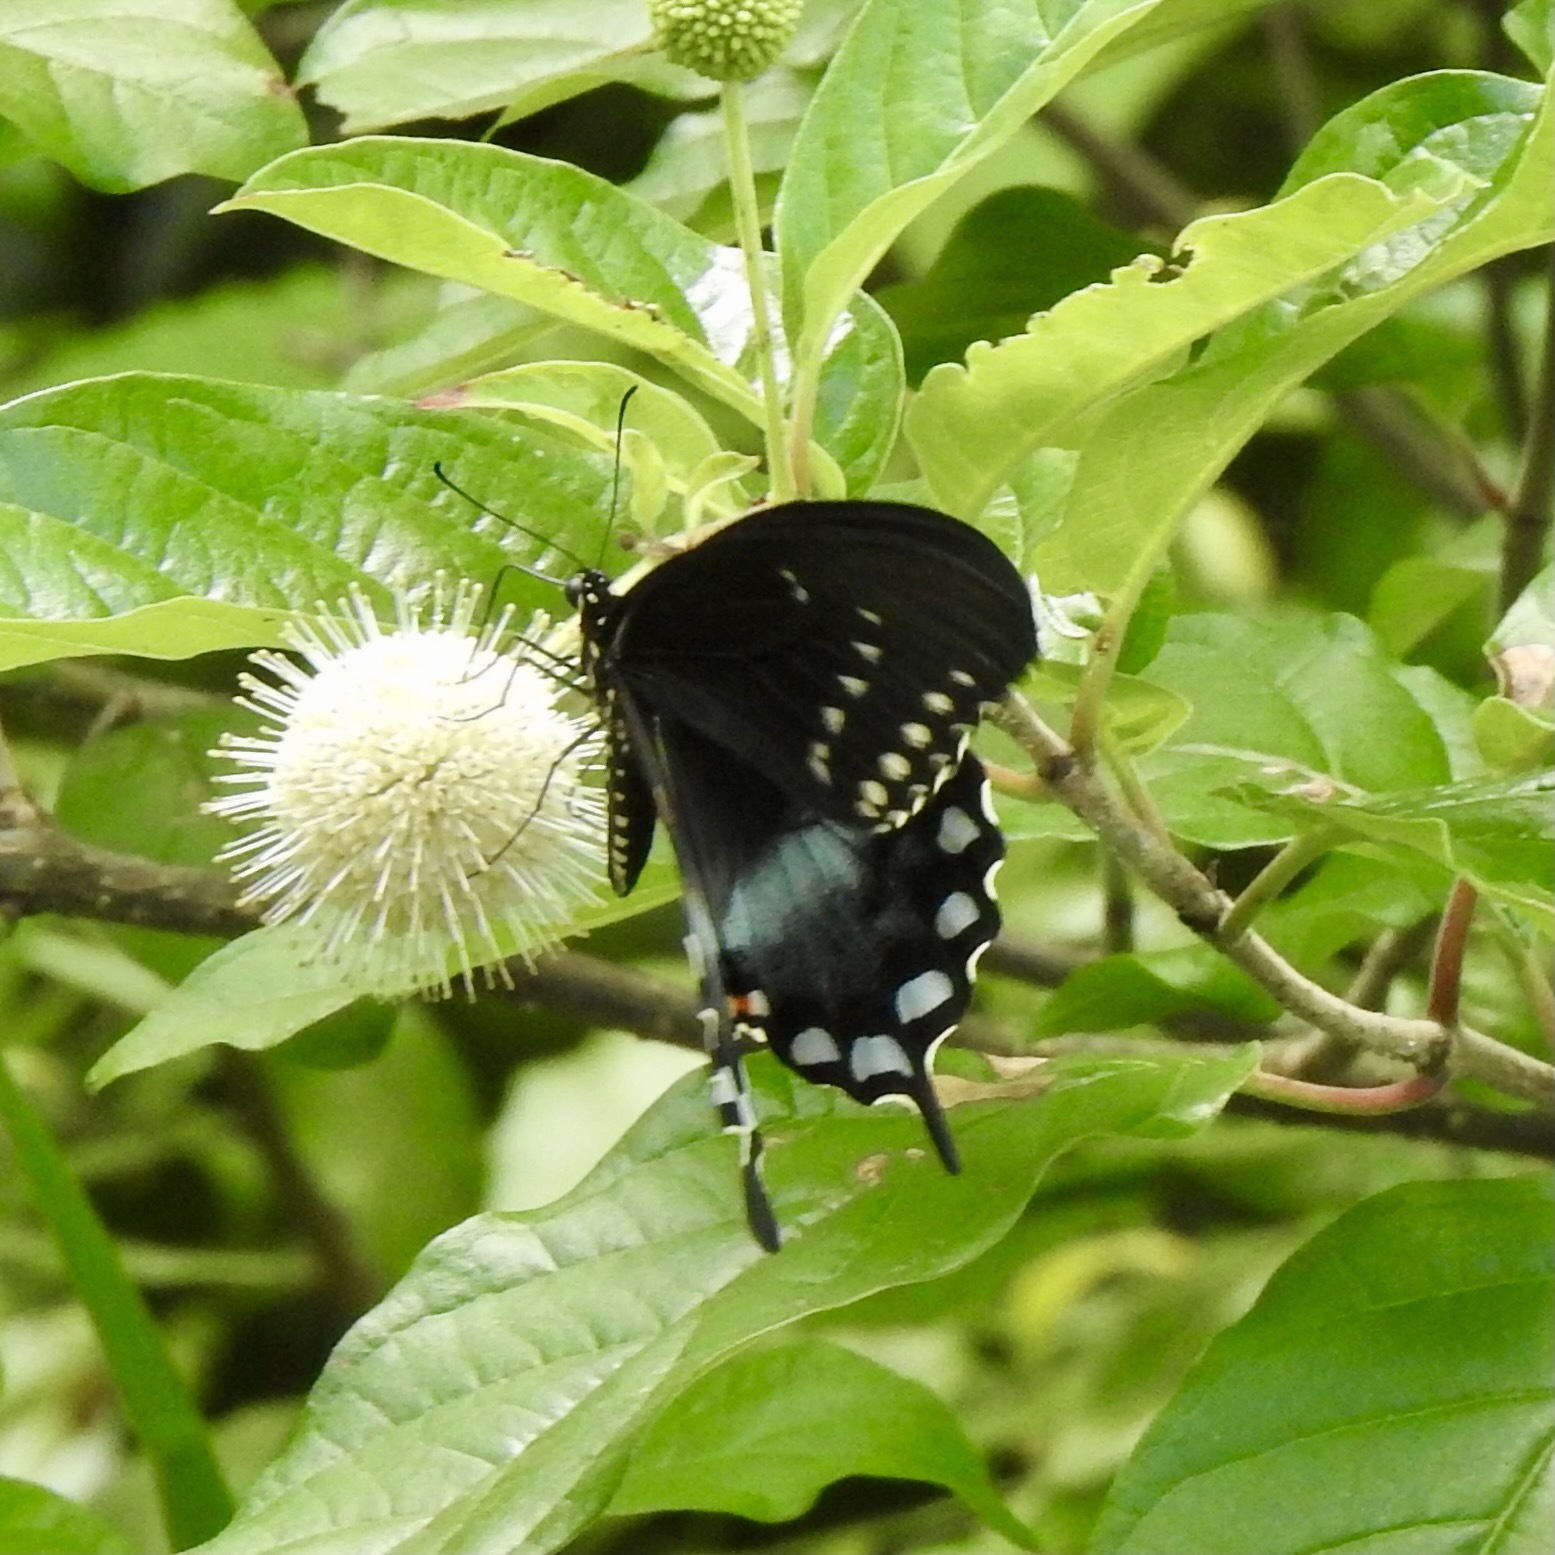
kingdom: Animalia
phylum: Arthropoda
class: Insecta
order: Lepidoptera
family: Papilionidae
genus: Papilio
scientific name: Papilio troilus
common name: Spicebush swallowtail
